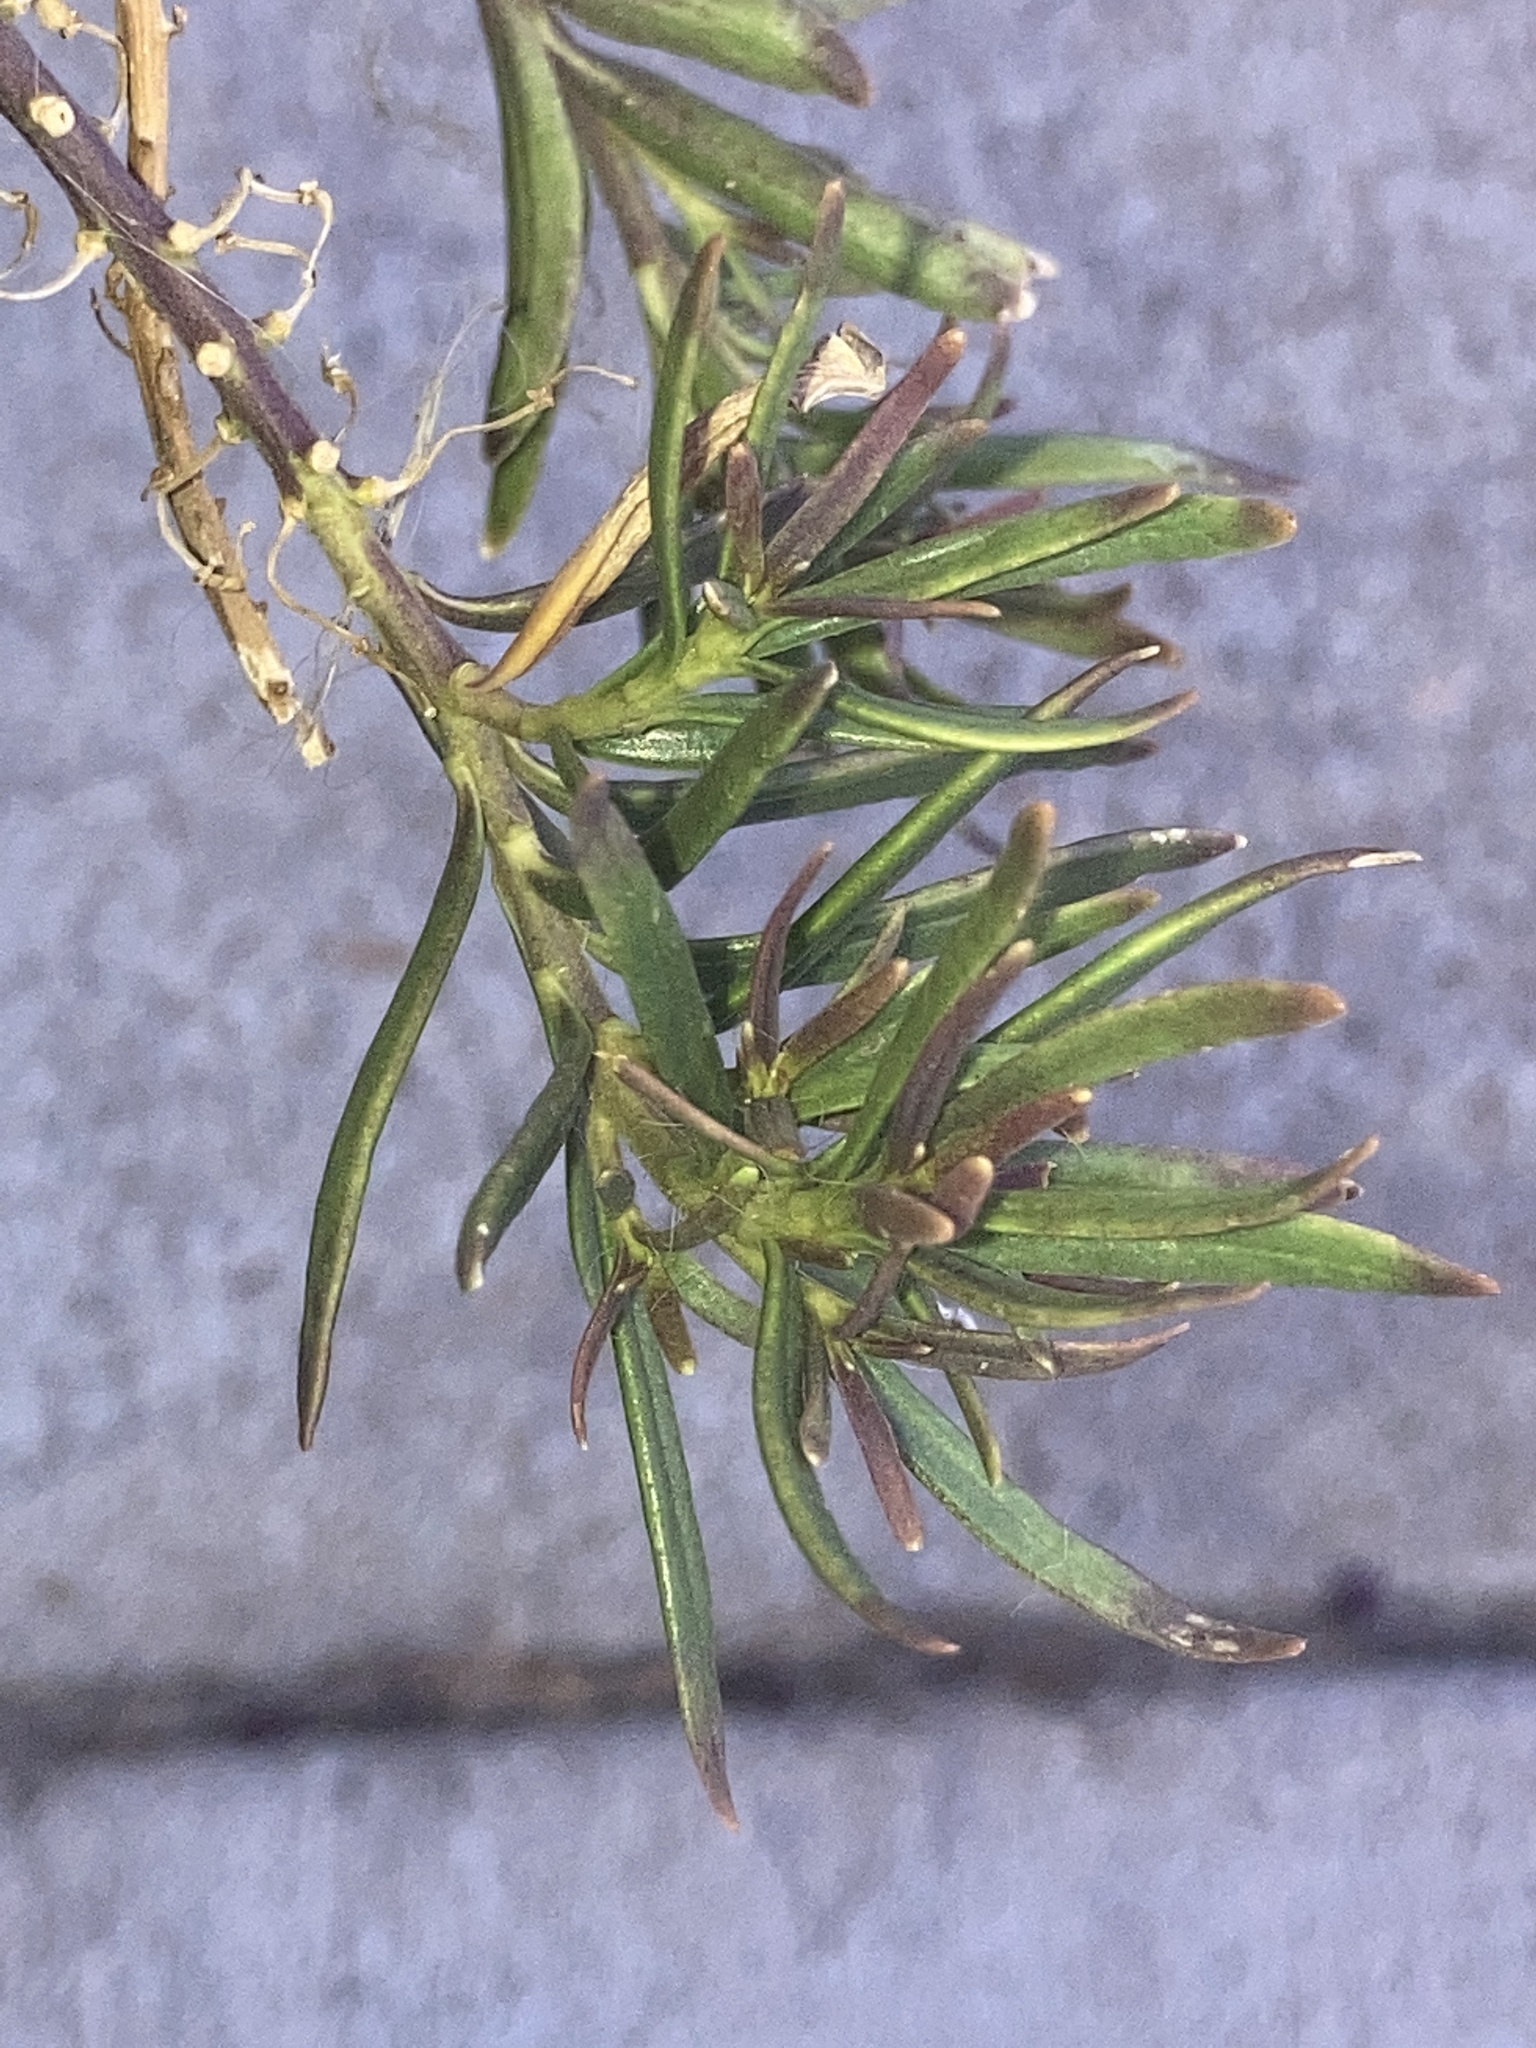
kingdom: Plantae
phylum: Tracheophyta
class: Magnoliopsida
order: Lamiales
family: Acanthaceae
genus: Dianthera
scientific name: Dianthera americana
